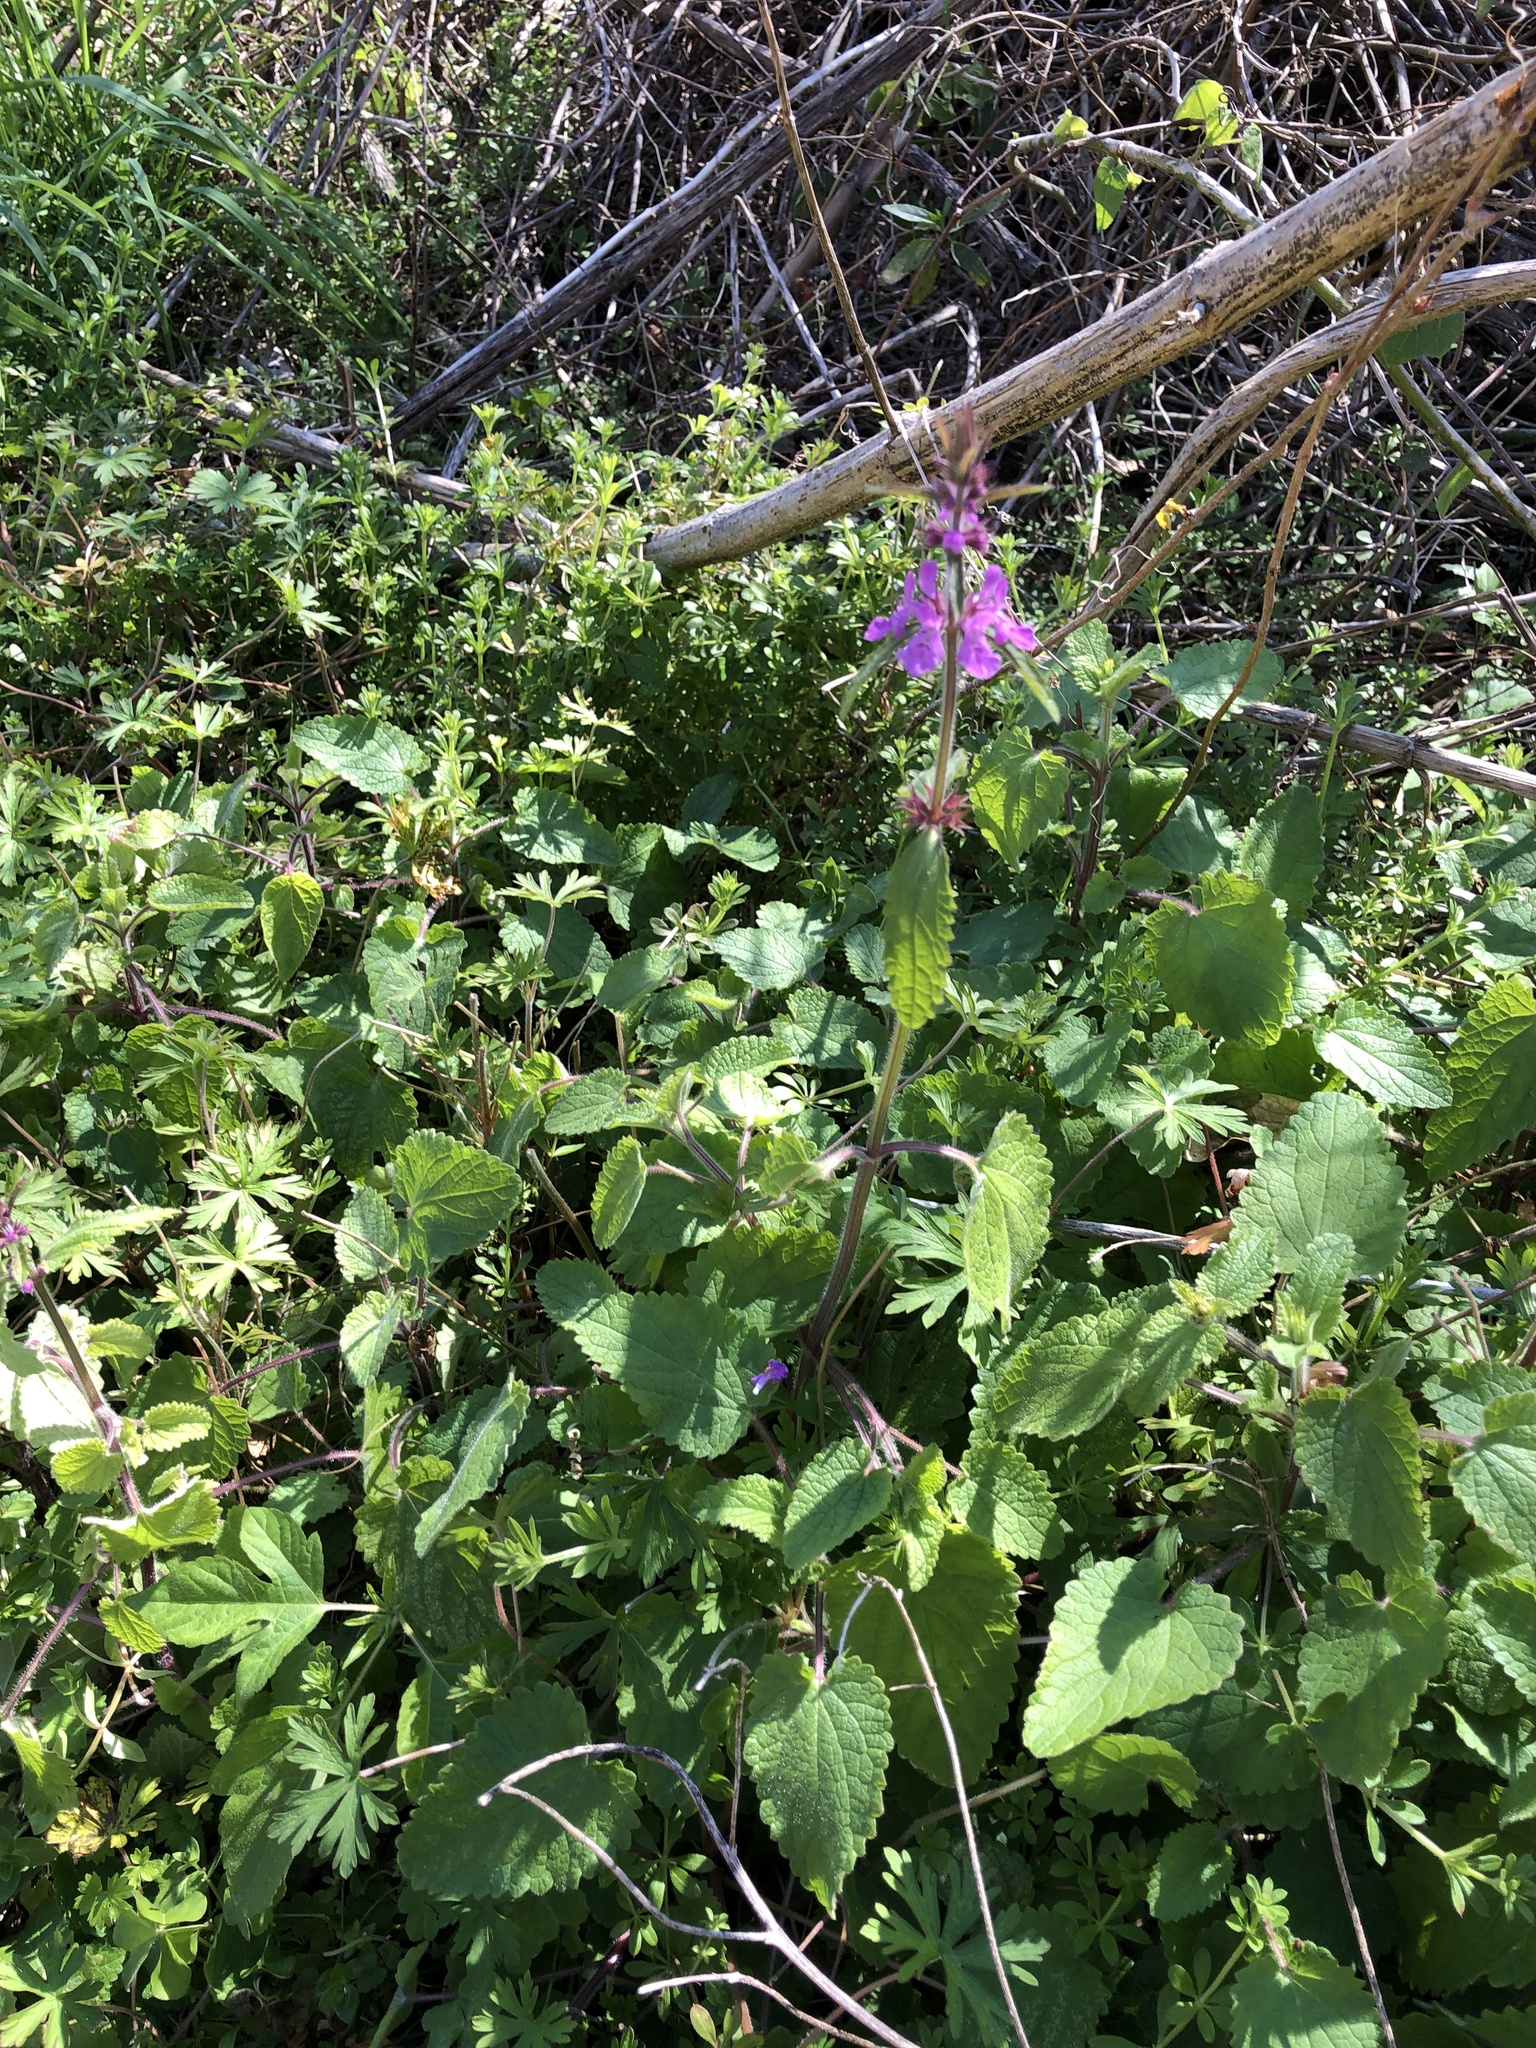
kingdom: Plantae
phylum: Tracheophyta
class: Magnoliopsida
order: Lamiales
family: Lamiaceae
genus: Stachys
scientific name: Stachys drummondii
